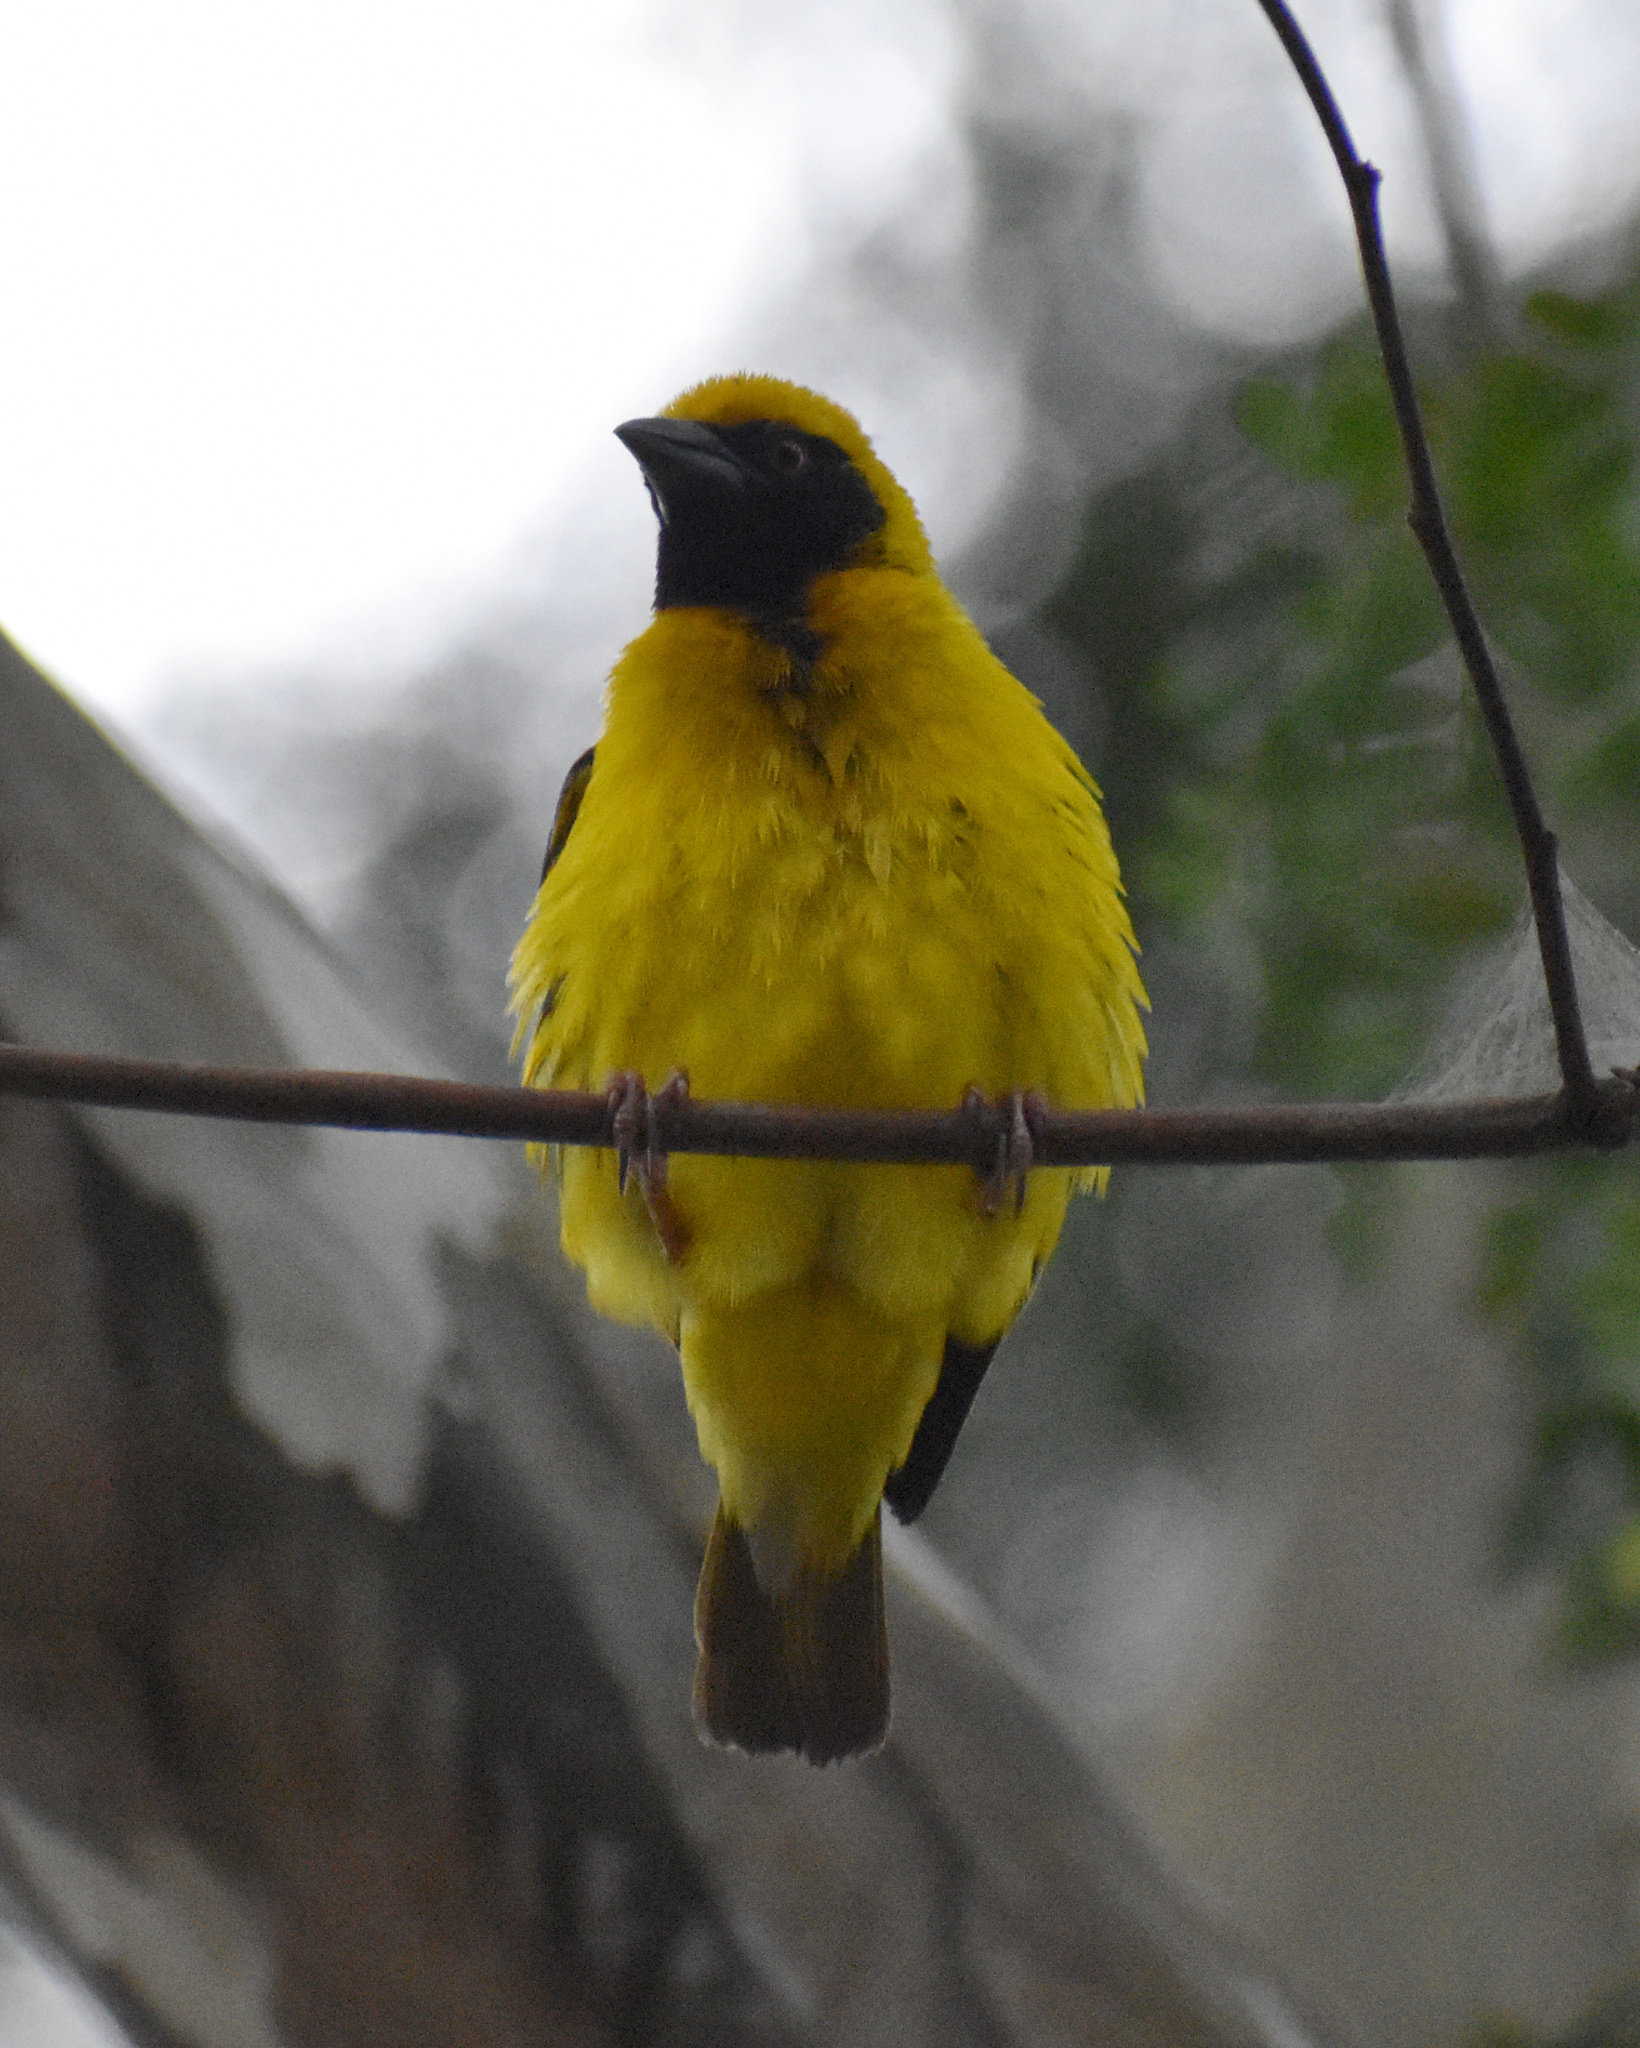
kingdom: Animalia
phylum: Chordata
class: Aves
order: Passeriformes
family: Ploceidae
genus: Ploceus
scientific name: Ploceus cucullatus
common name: Village weaver
